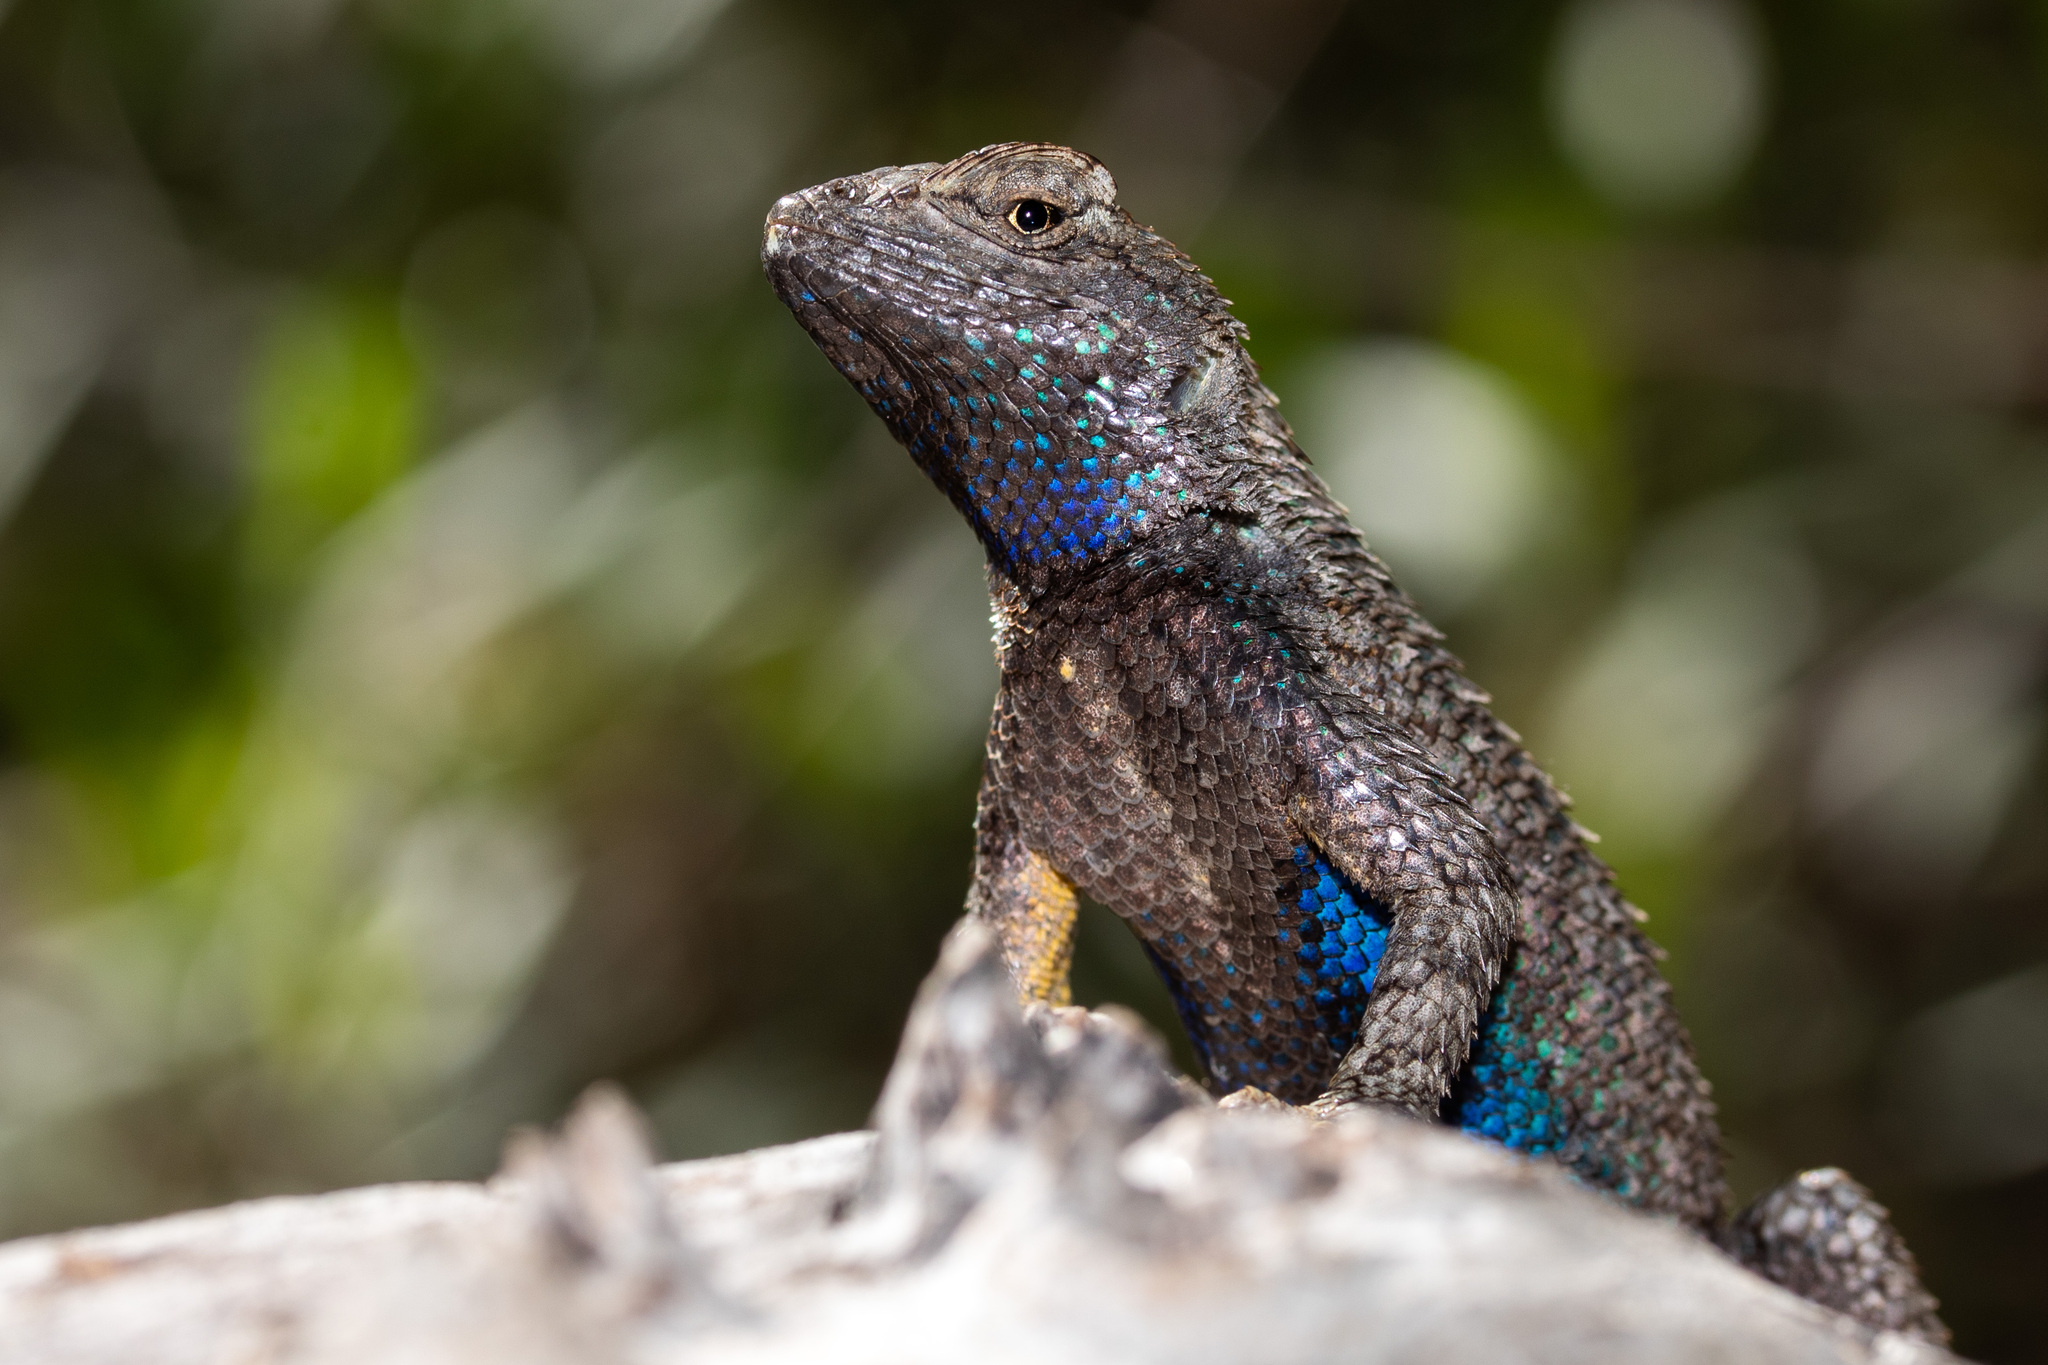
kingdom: Animalia
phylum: Chordata
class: Squamata
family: Phrynosomatidae
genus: Sceloporus
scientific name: Sceloporus occidentalis
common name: Western fence lizard
